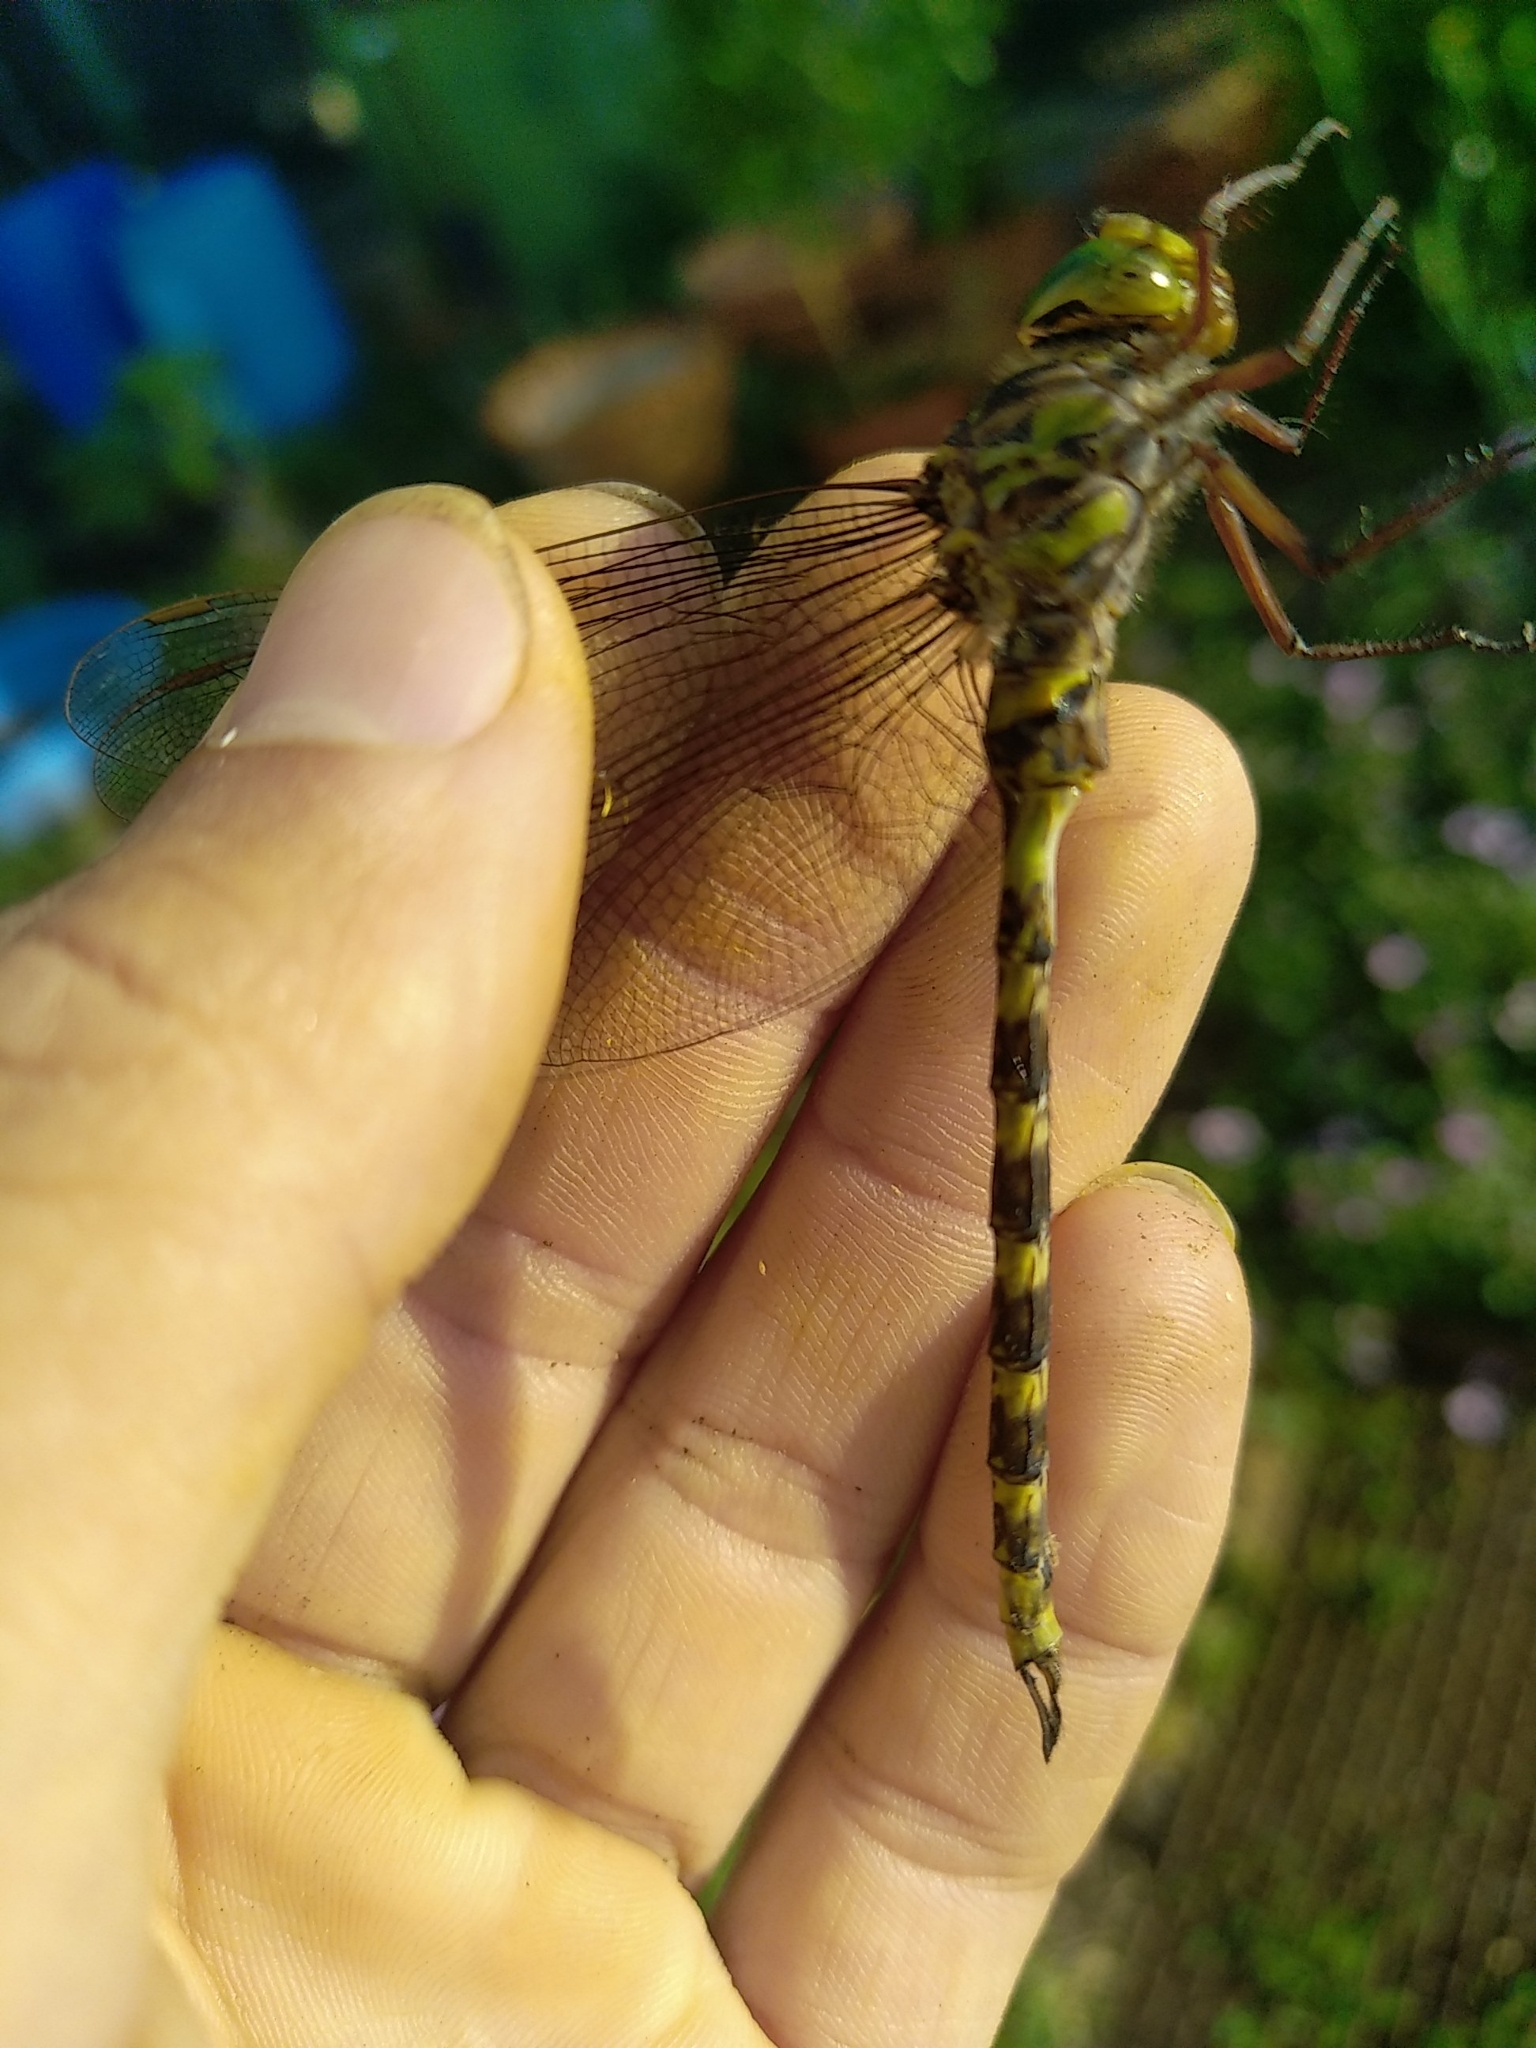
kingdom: Animalia
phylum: Arthropoda
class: Insecta
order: Odonata
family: Aeshnidae
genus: Boyeria
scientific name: Boyeria irene
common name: Western spectre
